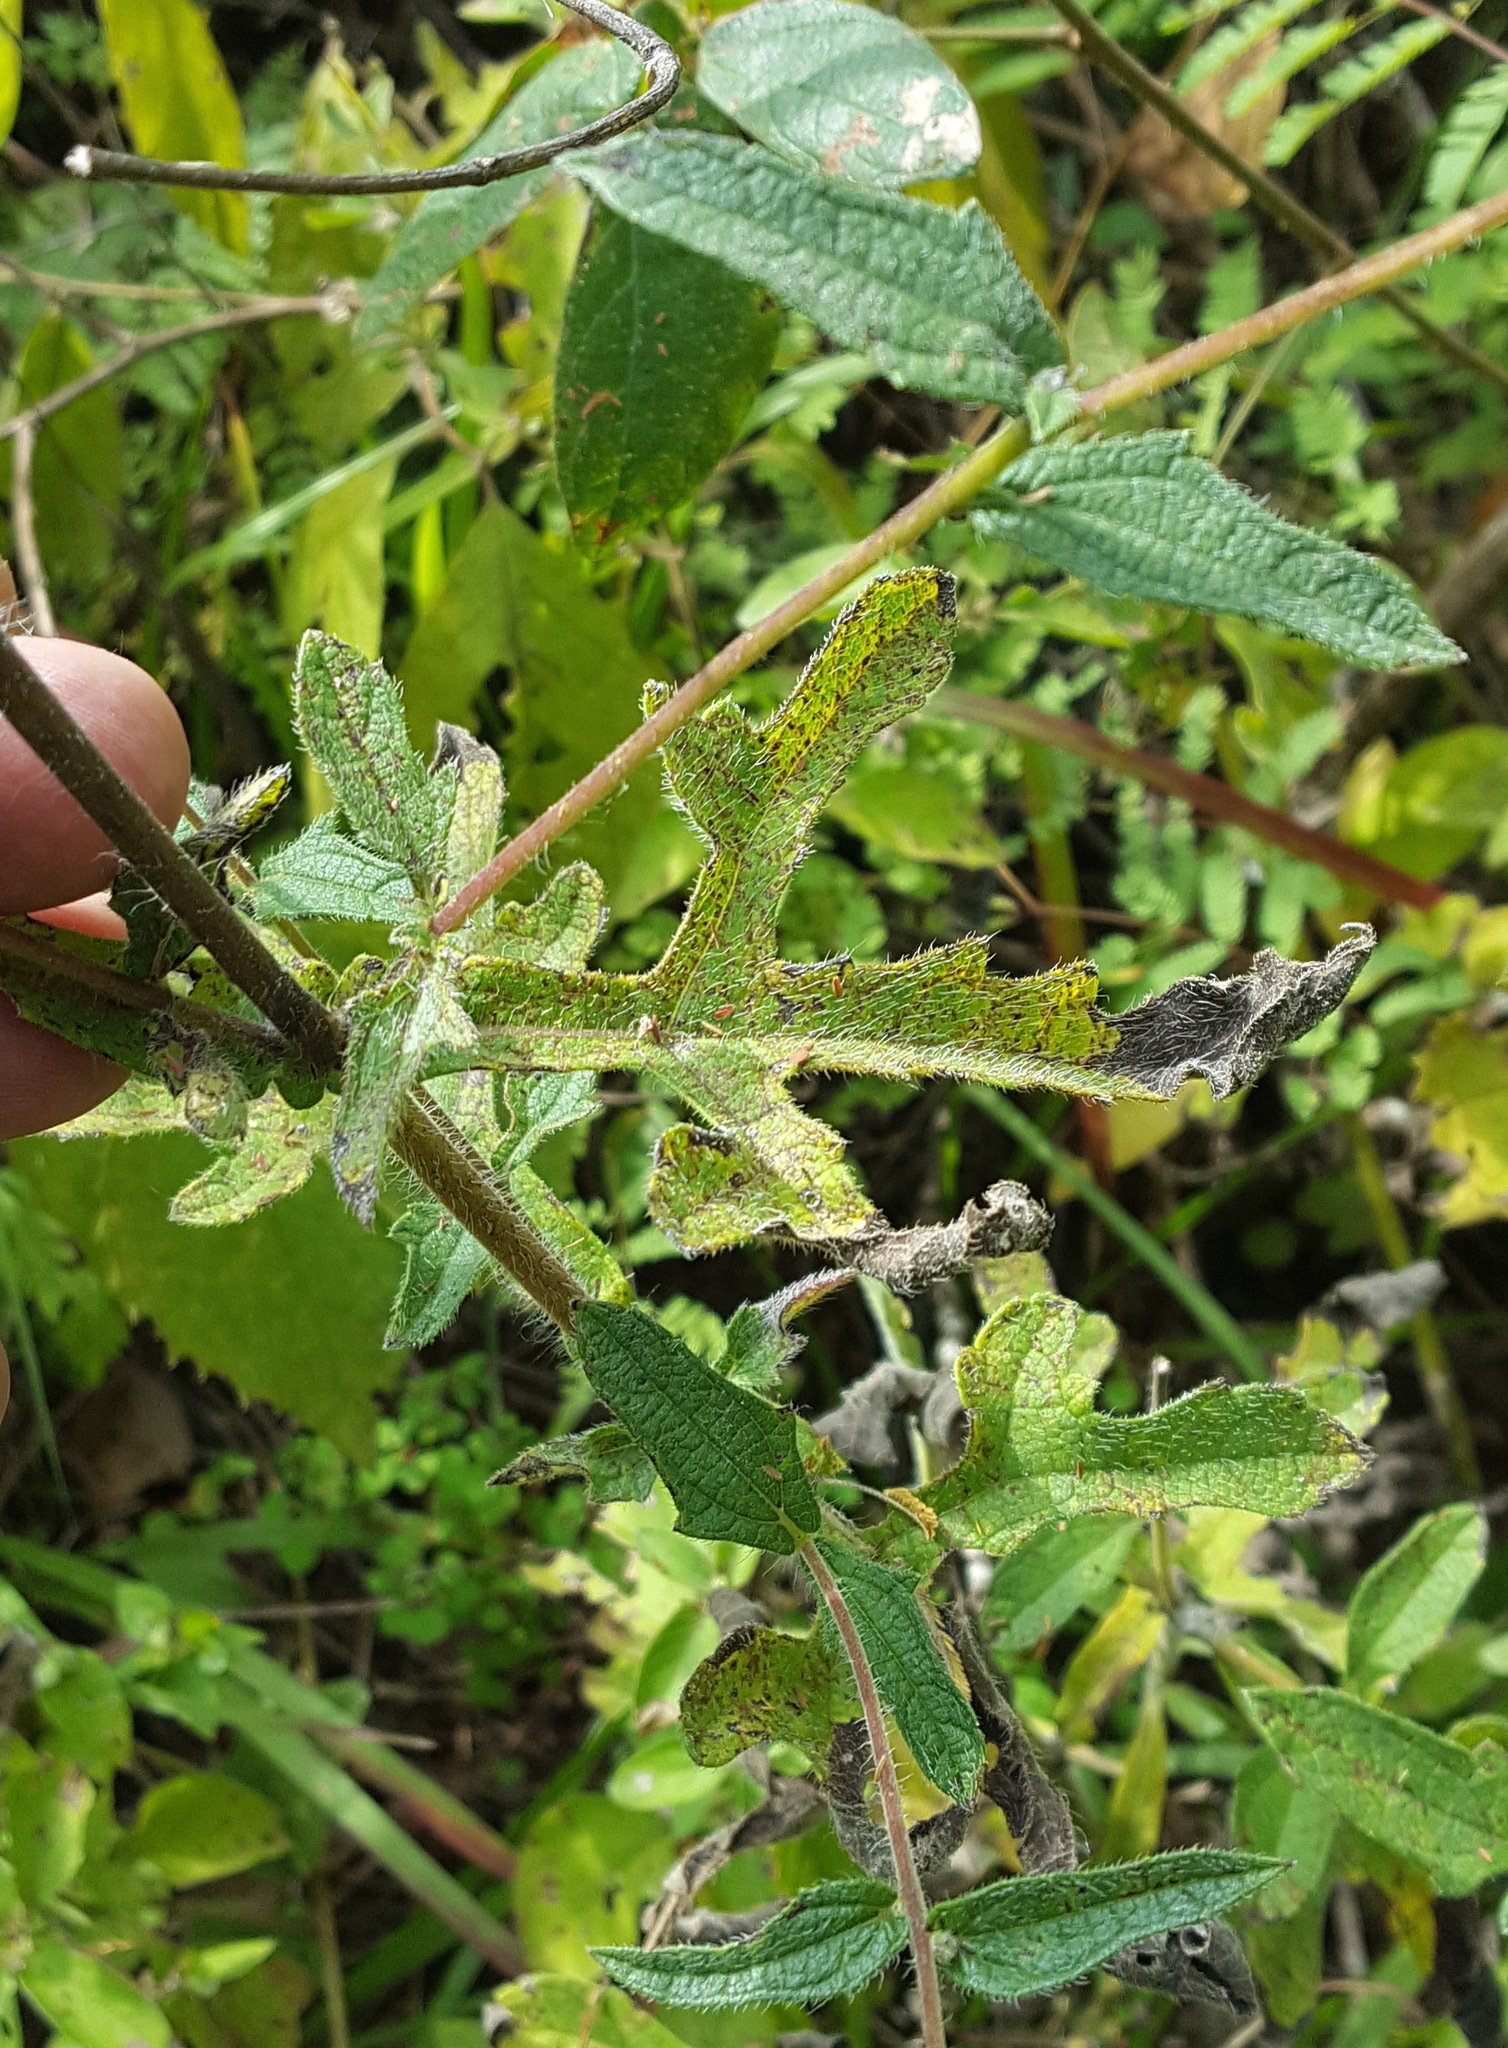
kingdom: Plantae
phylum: Tracheophyta
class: Magnoliopsida
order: Asterales
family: Asteraceae
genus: Simsia
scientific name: Simsia sanguinea
